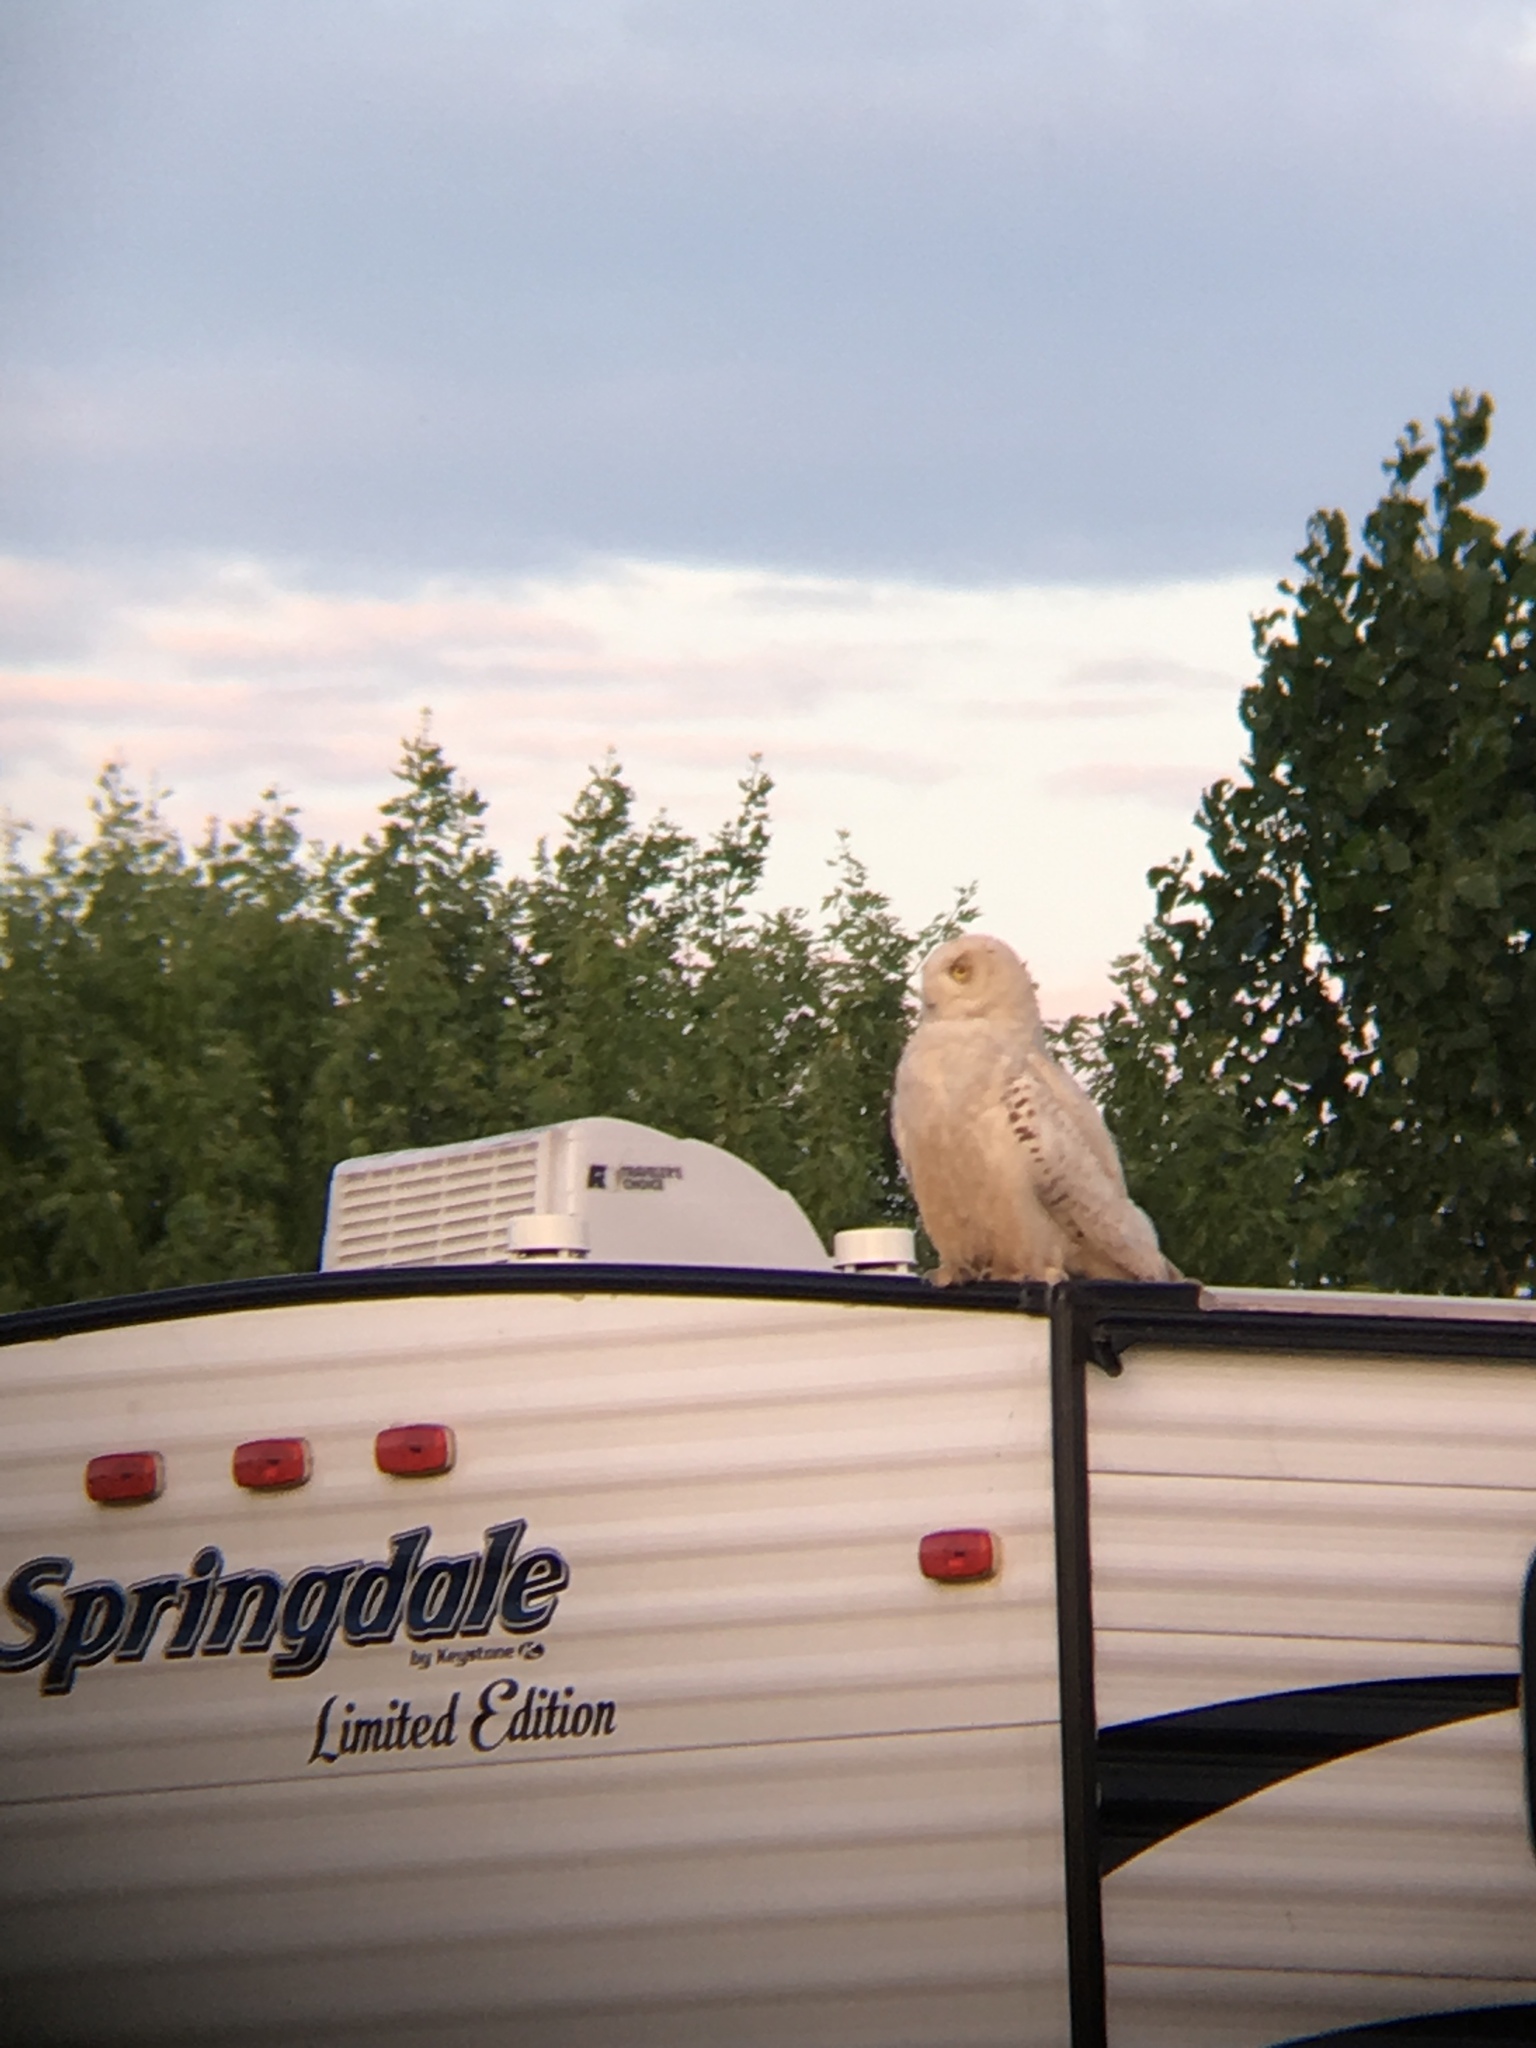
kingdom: Animalia
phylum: Chordata
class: Aves
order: Strigiformes
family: Strigidae
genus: Bubo
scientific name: Bubo scandiacus
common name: Snowy owl
